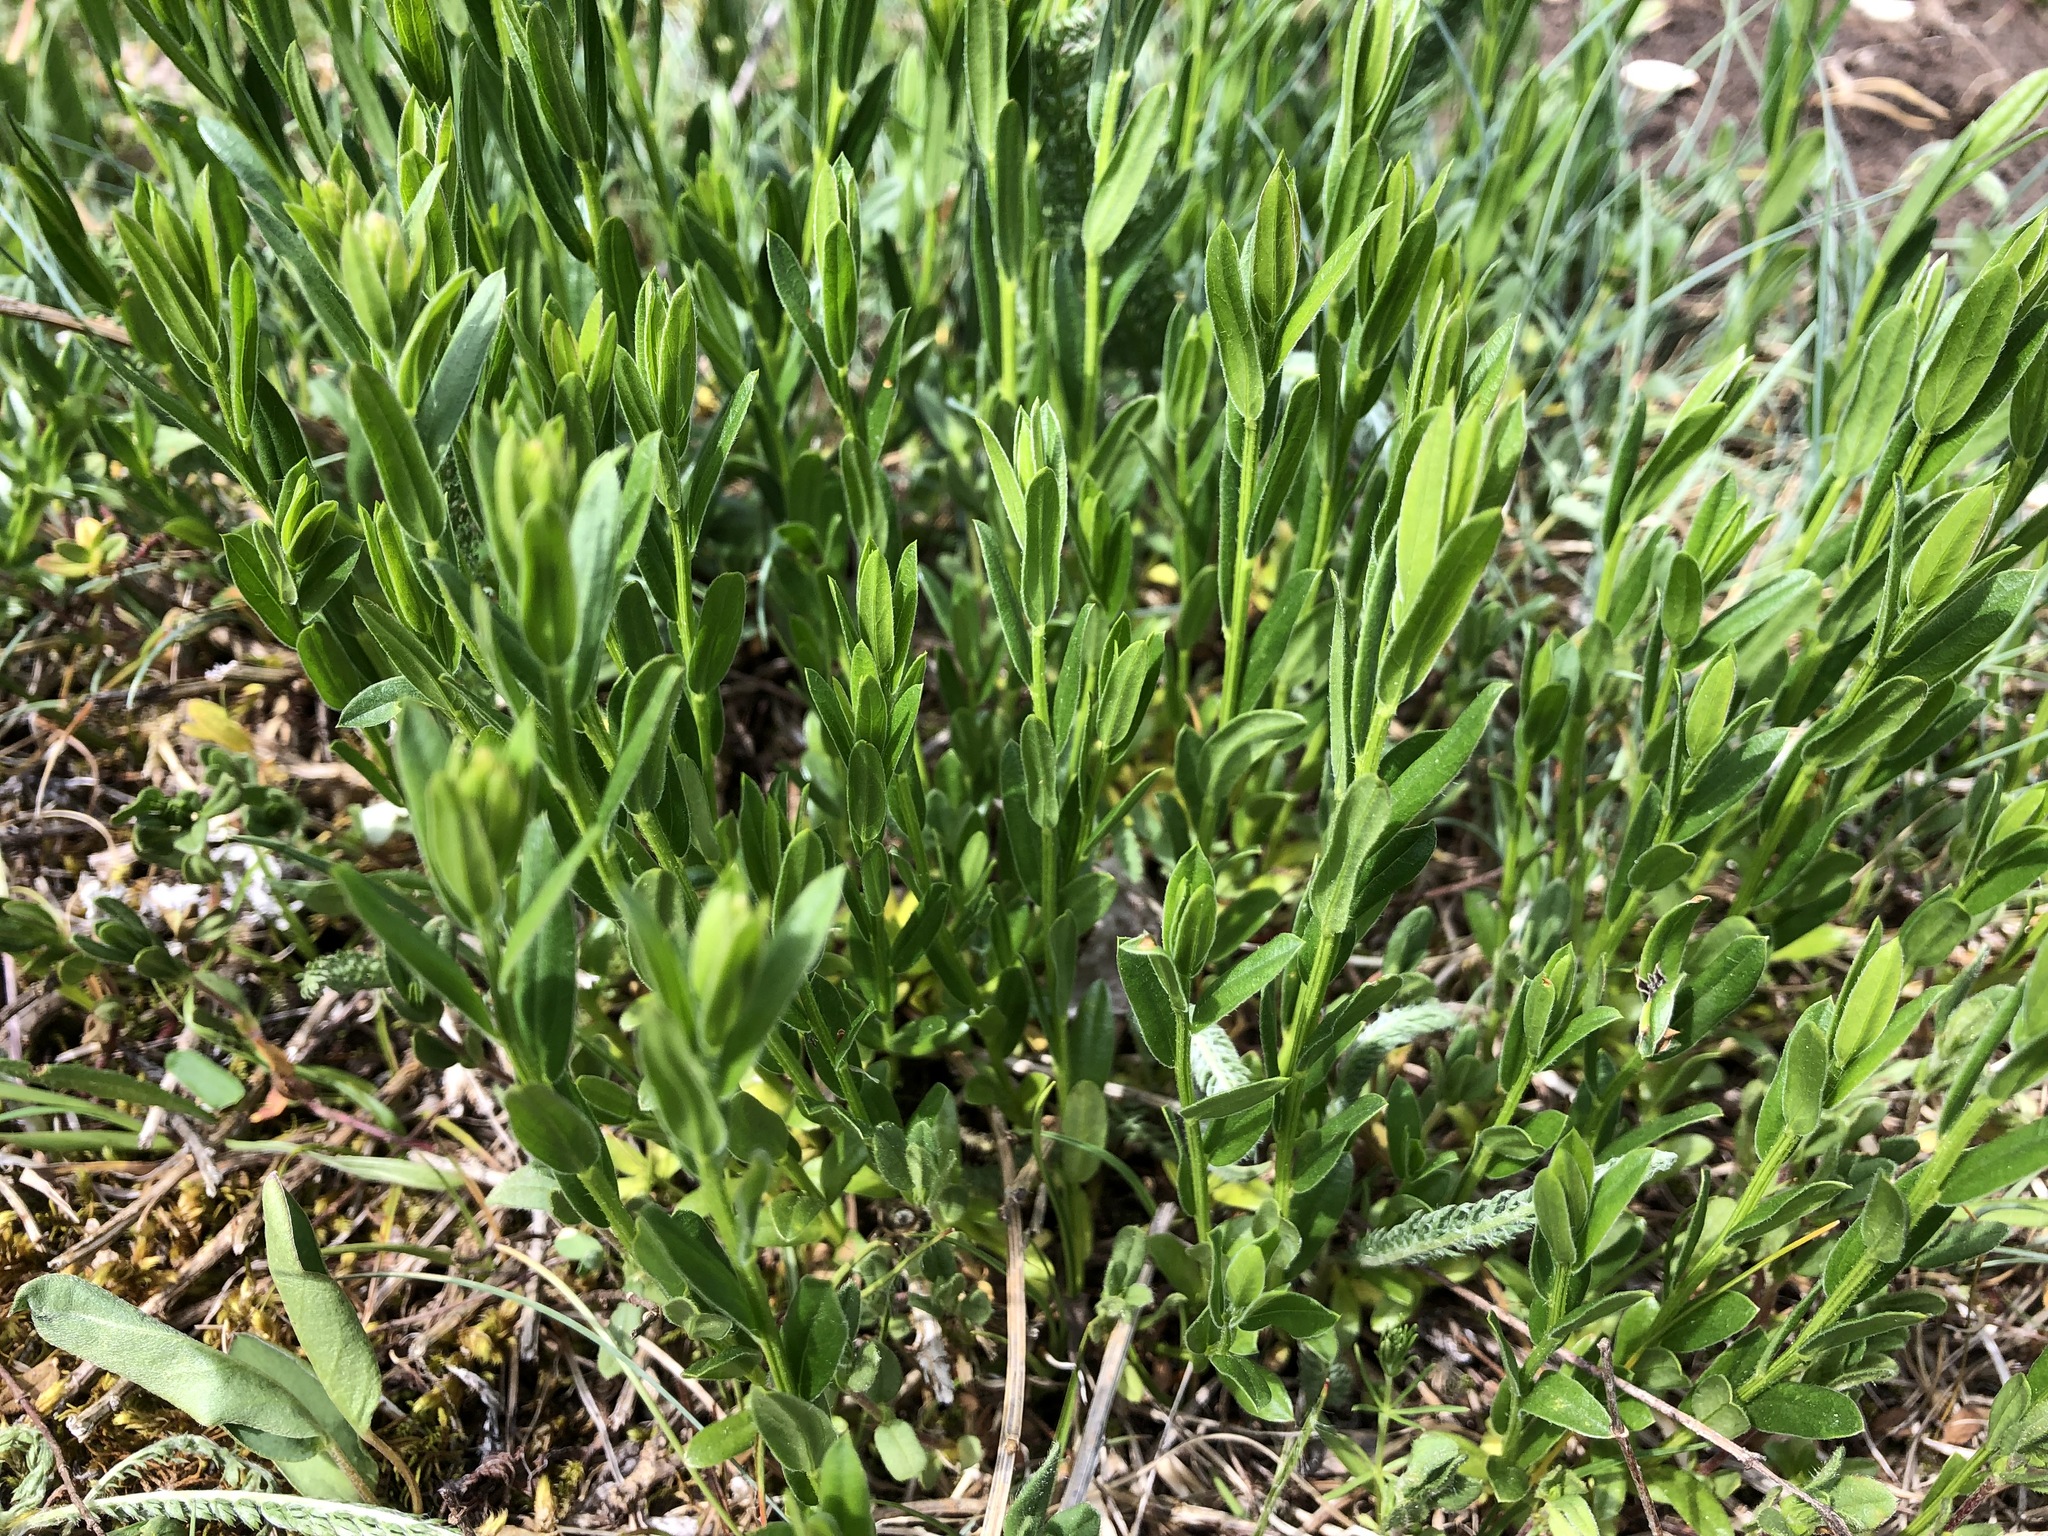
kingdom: Plantae
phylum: Tracheophyta
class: Magnoliopsida
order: Fabales
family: Fabaceae
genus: Genista
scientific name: Genista tinctoria
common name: Dyer's greenweed
